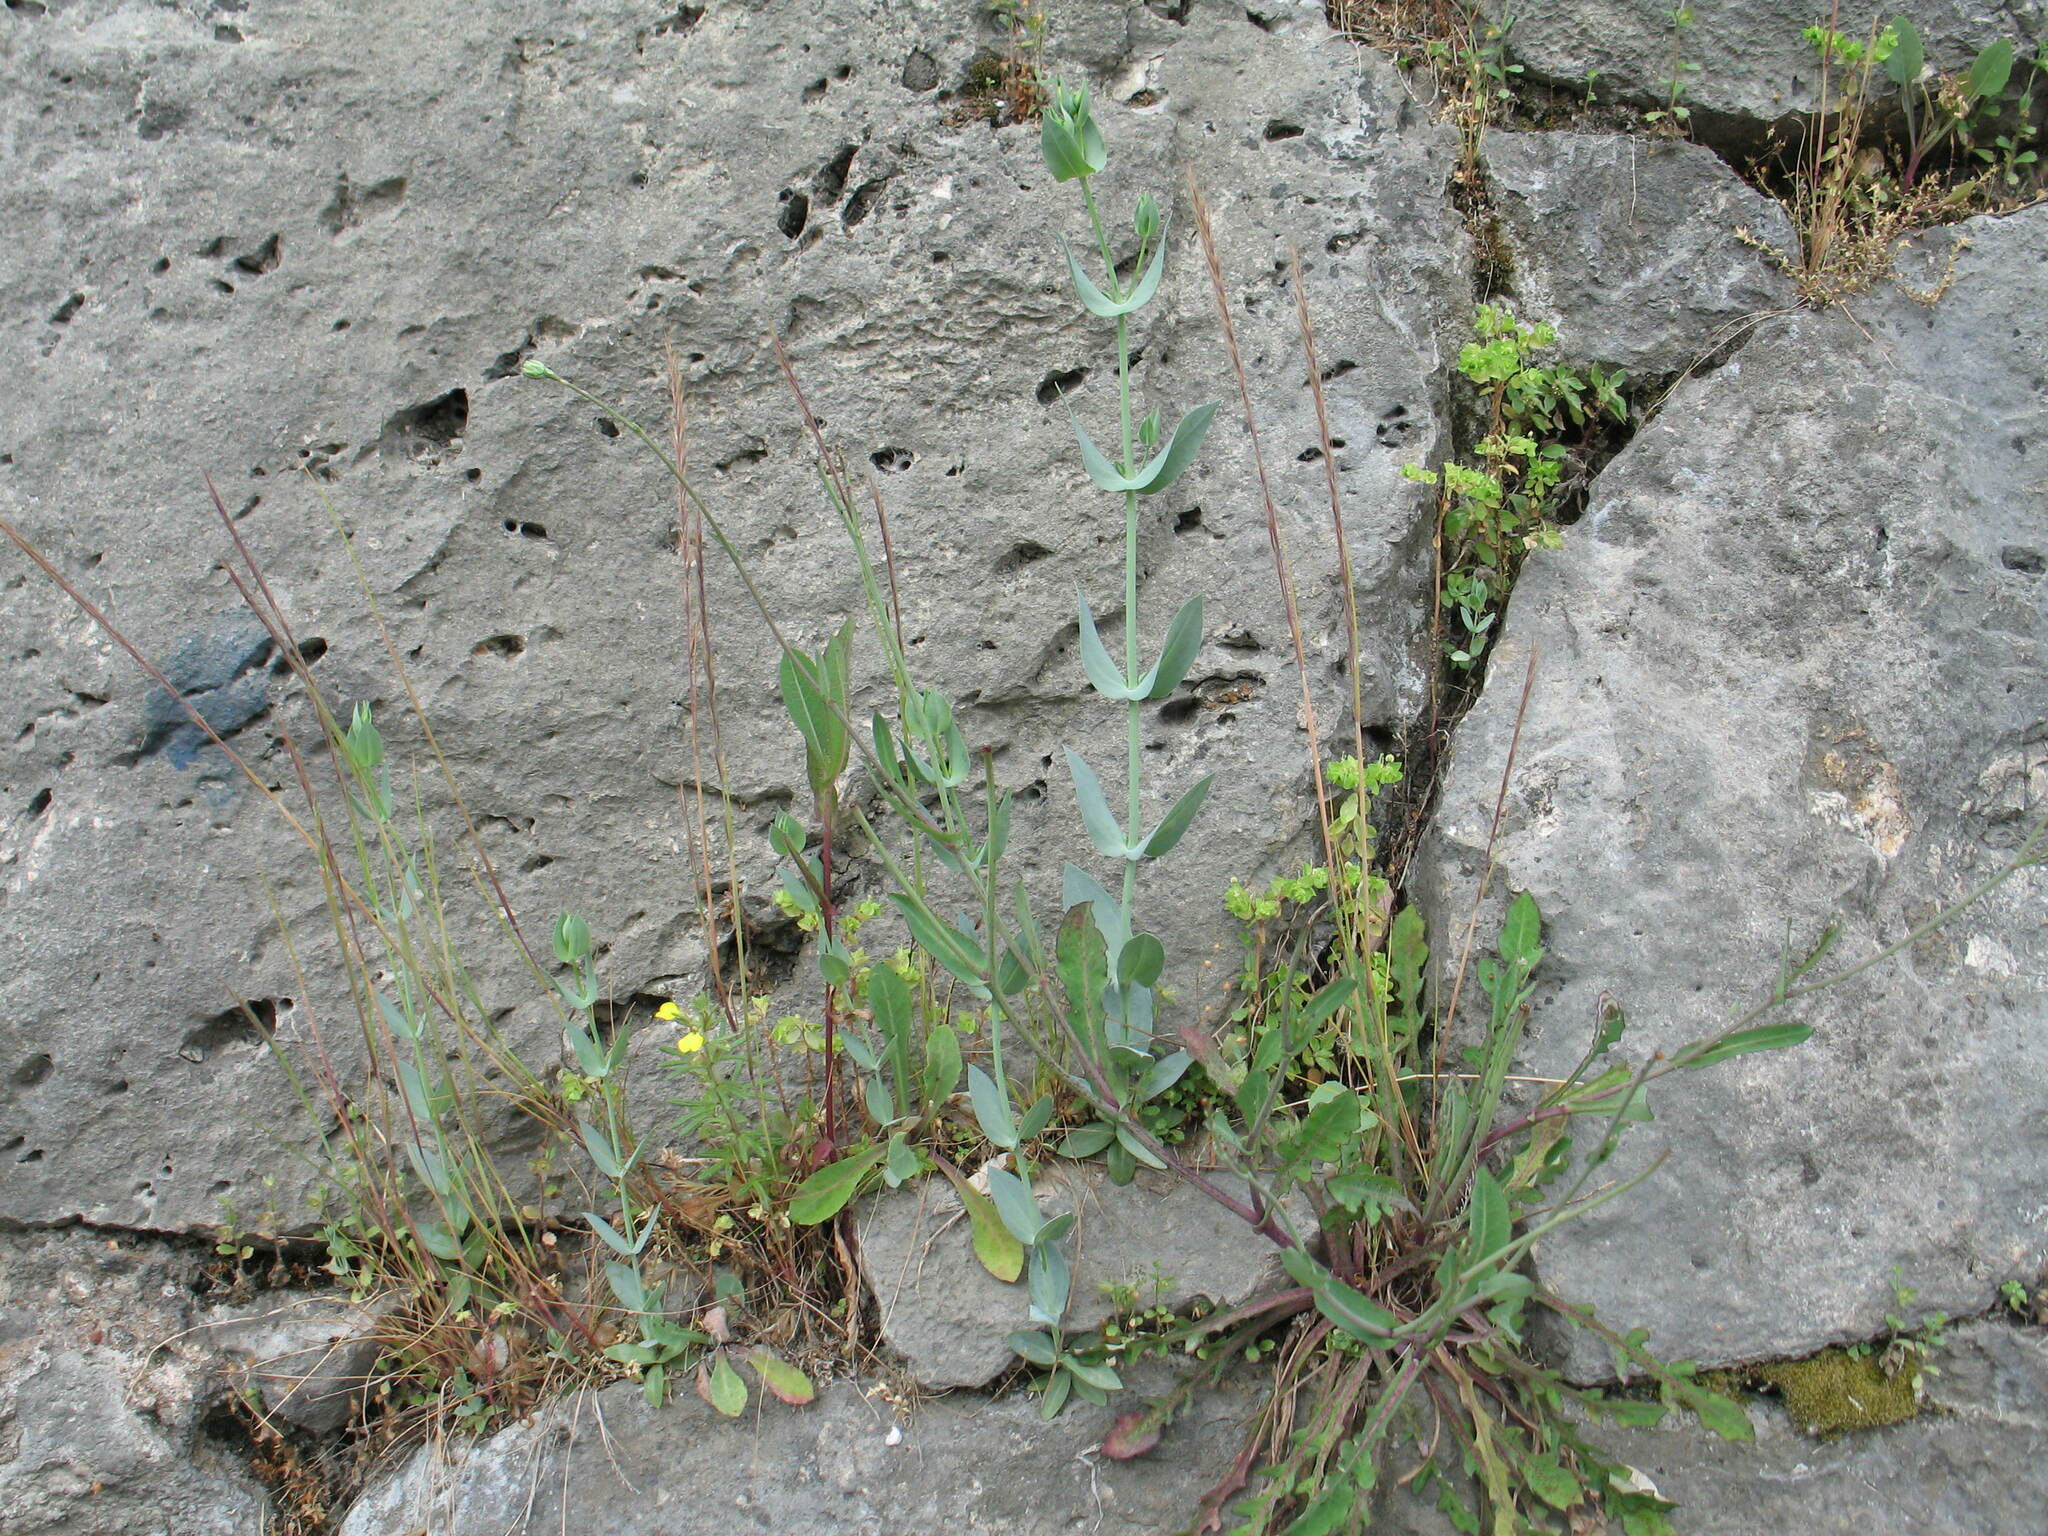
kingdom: Plantae
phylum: Tracheophyta
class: Magnoliopsida
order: Gentianales
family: Gentianaceae
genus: Blackstonia
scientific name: Blackstonia perfoliata
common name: Yellow-wort
